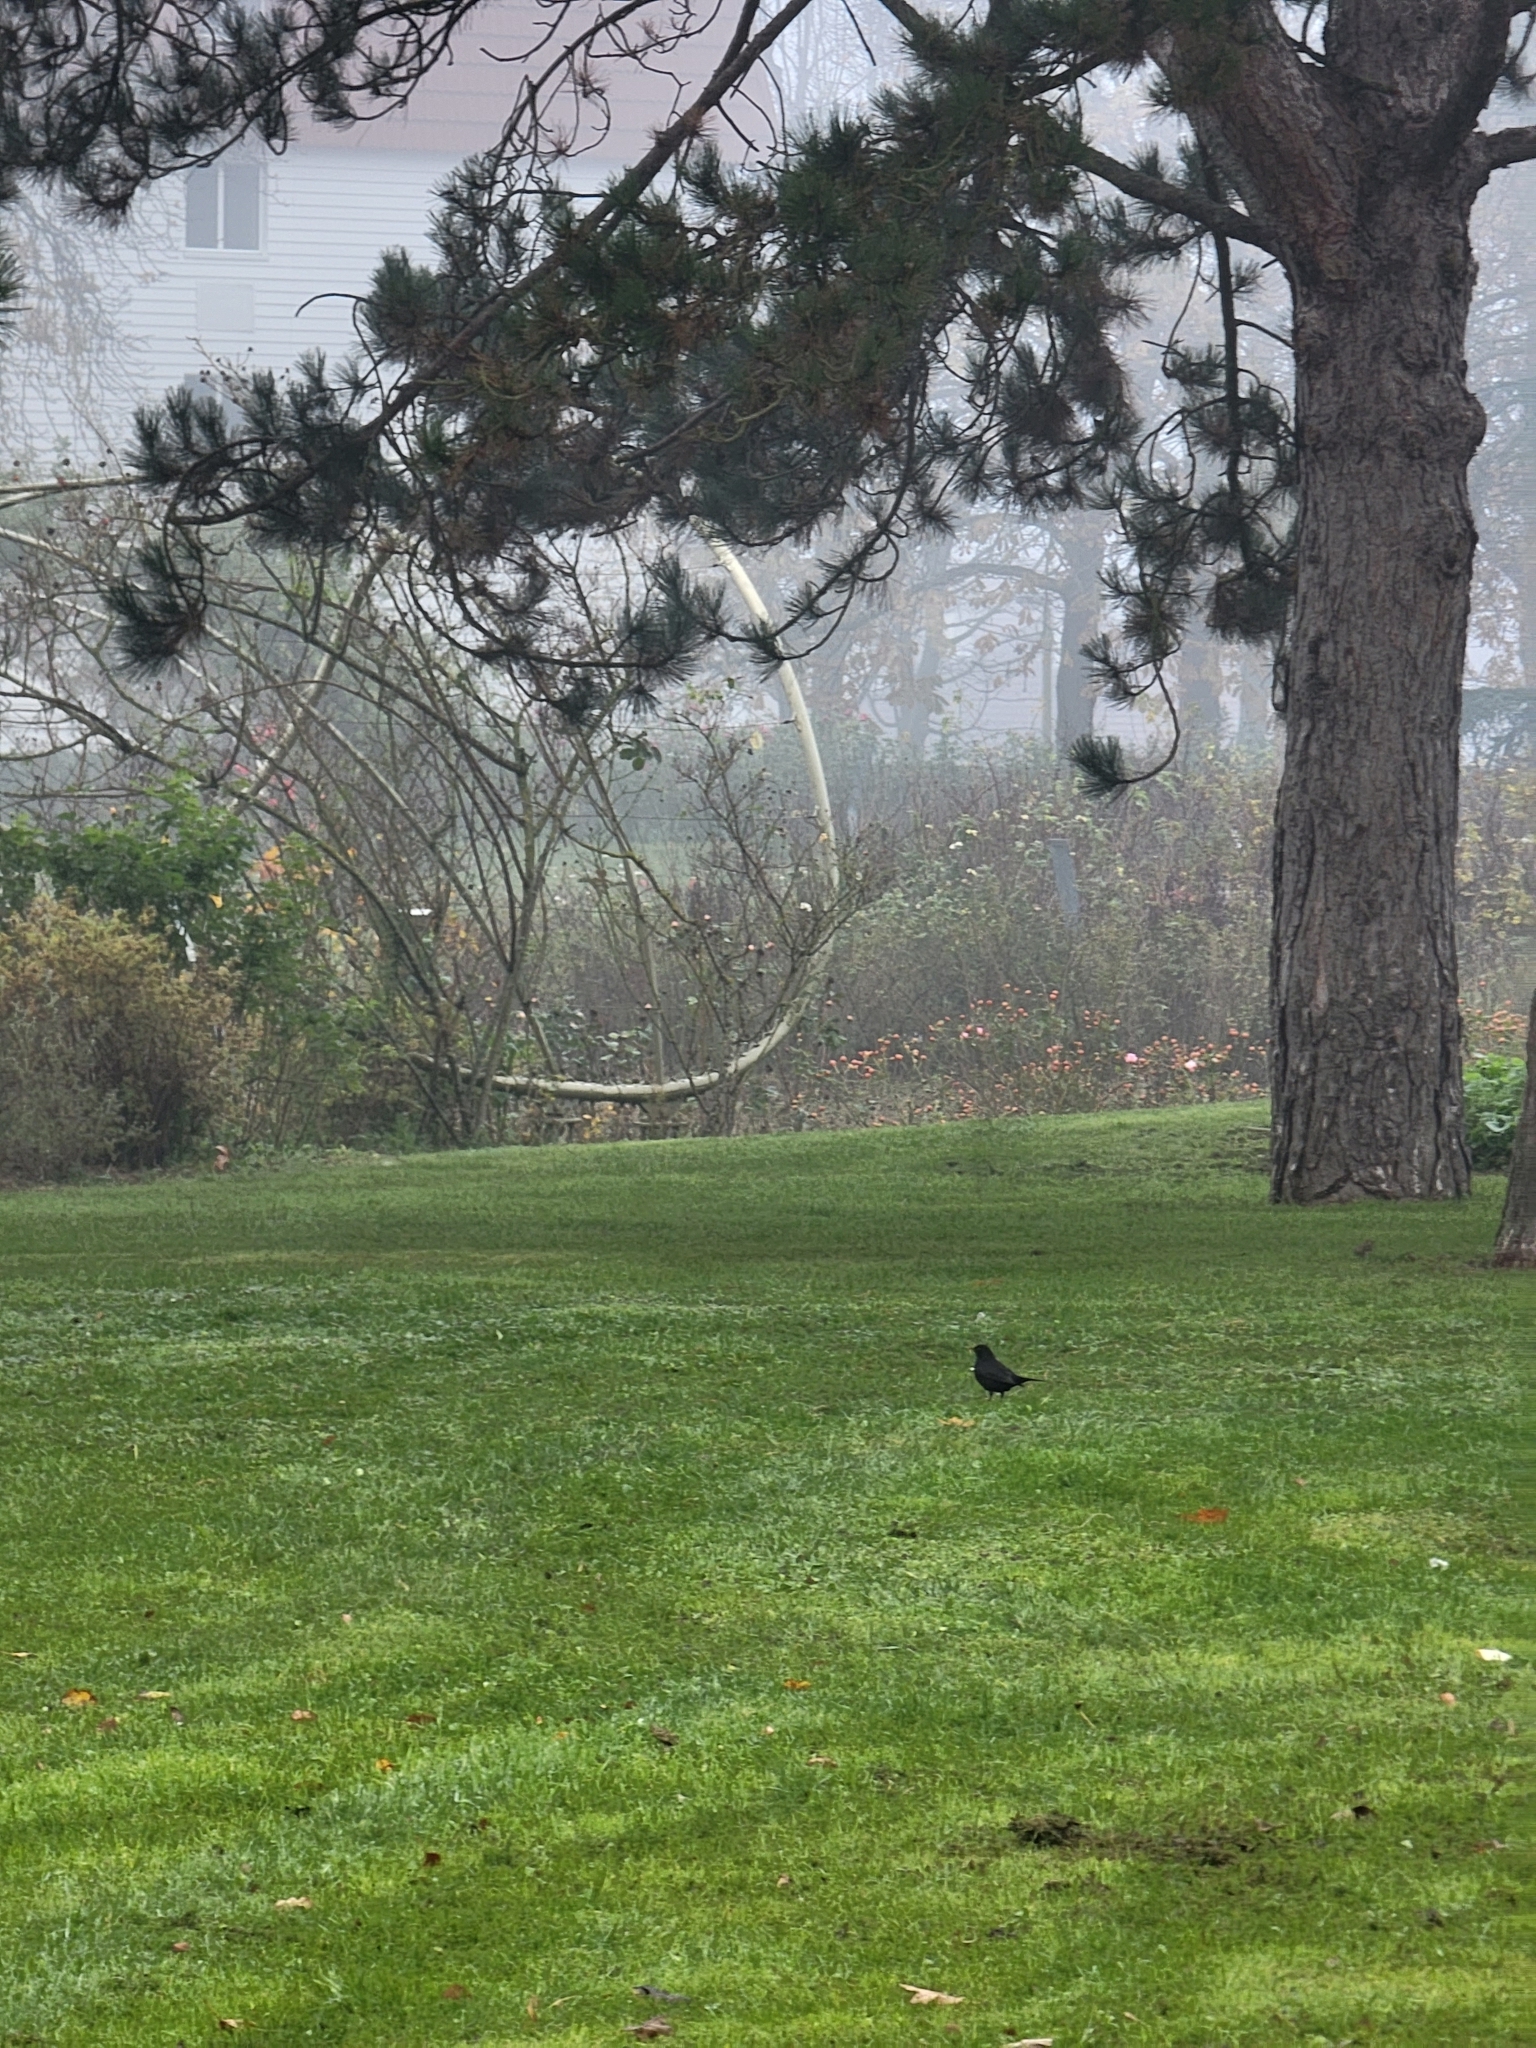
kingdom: Animalia
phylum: Chordata
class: Aves
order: Passeriformes
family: Turdidae
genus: Turdus
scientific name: Turdus merula
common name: Common blackbird
